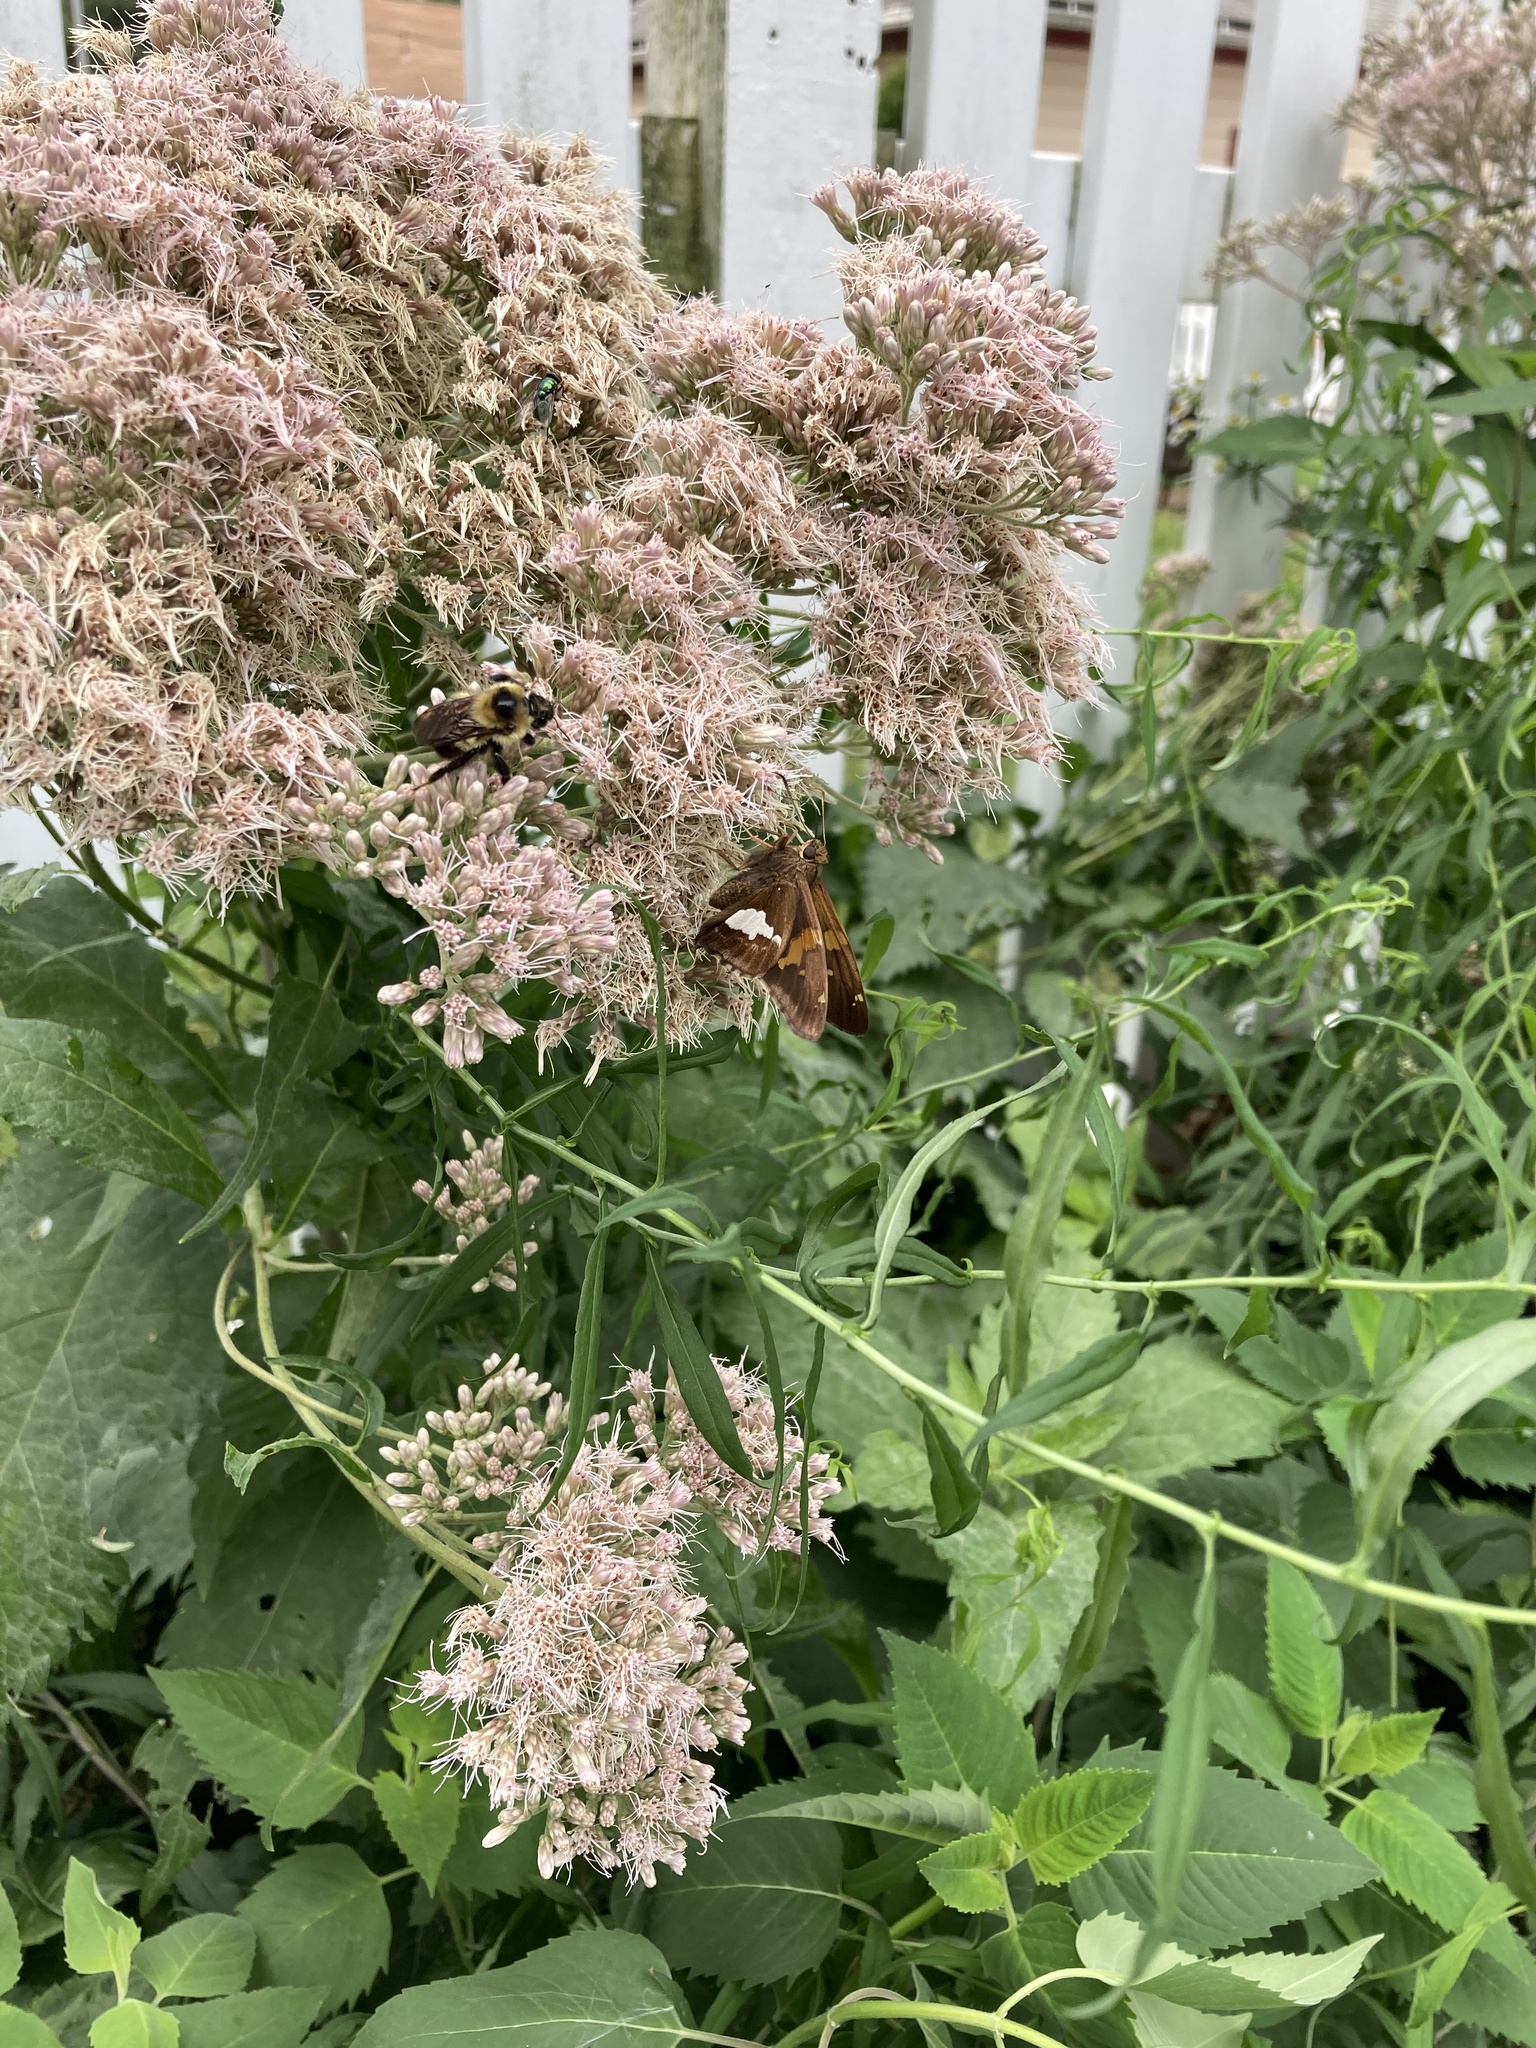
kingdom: Animalia
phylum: Arthropoda
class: Insecta
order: Lepidoptera
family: Hesperiidae
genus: Epargyreus
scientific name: Epargyreus clarus
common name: Silver-spotted skipper
